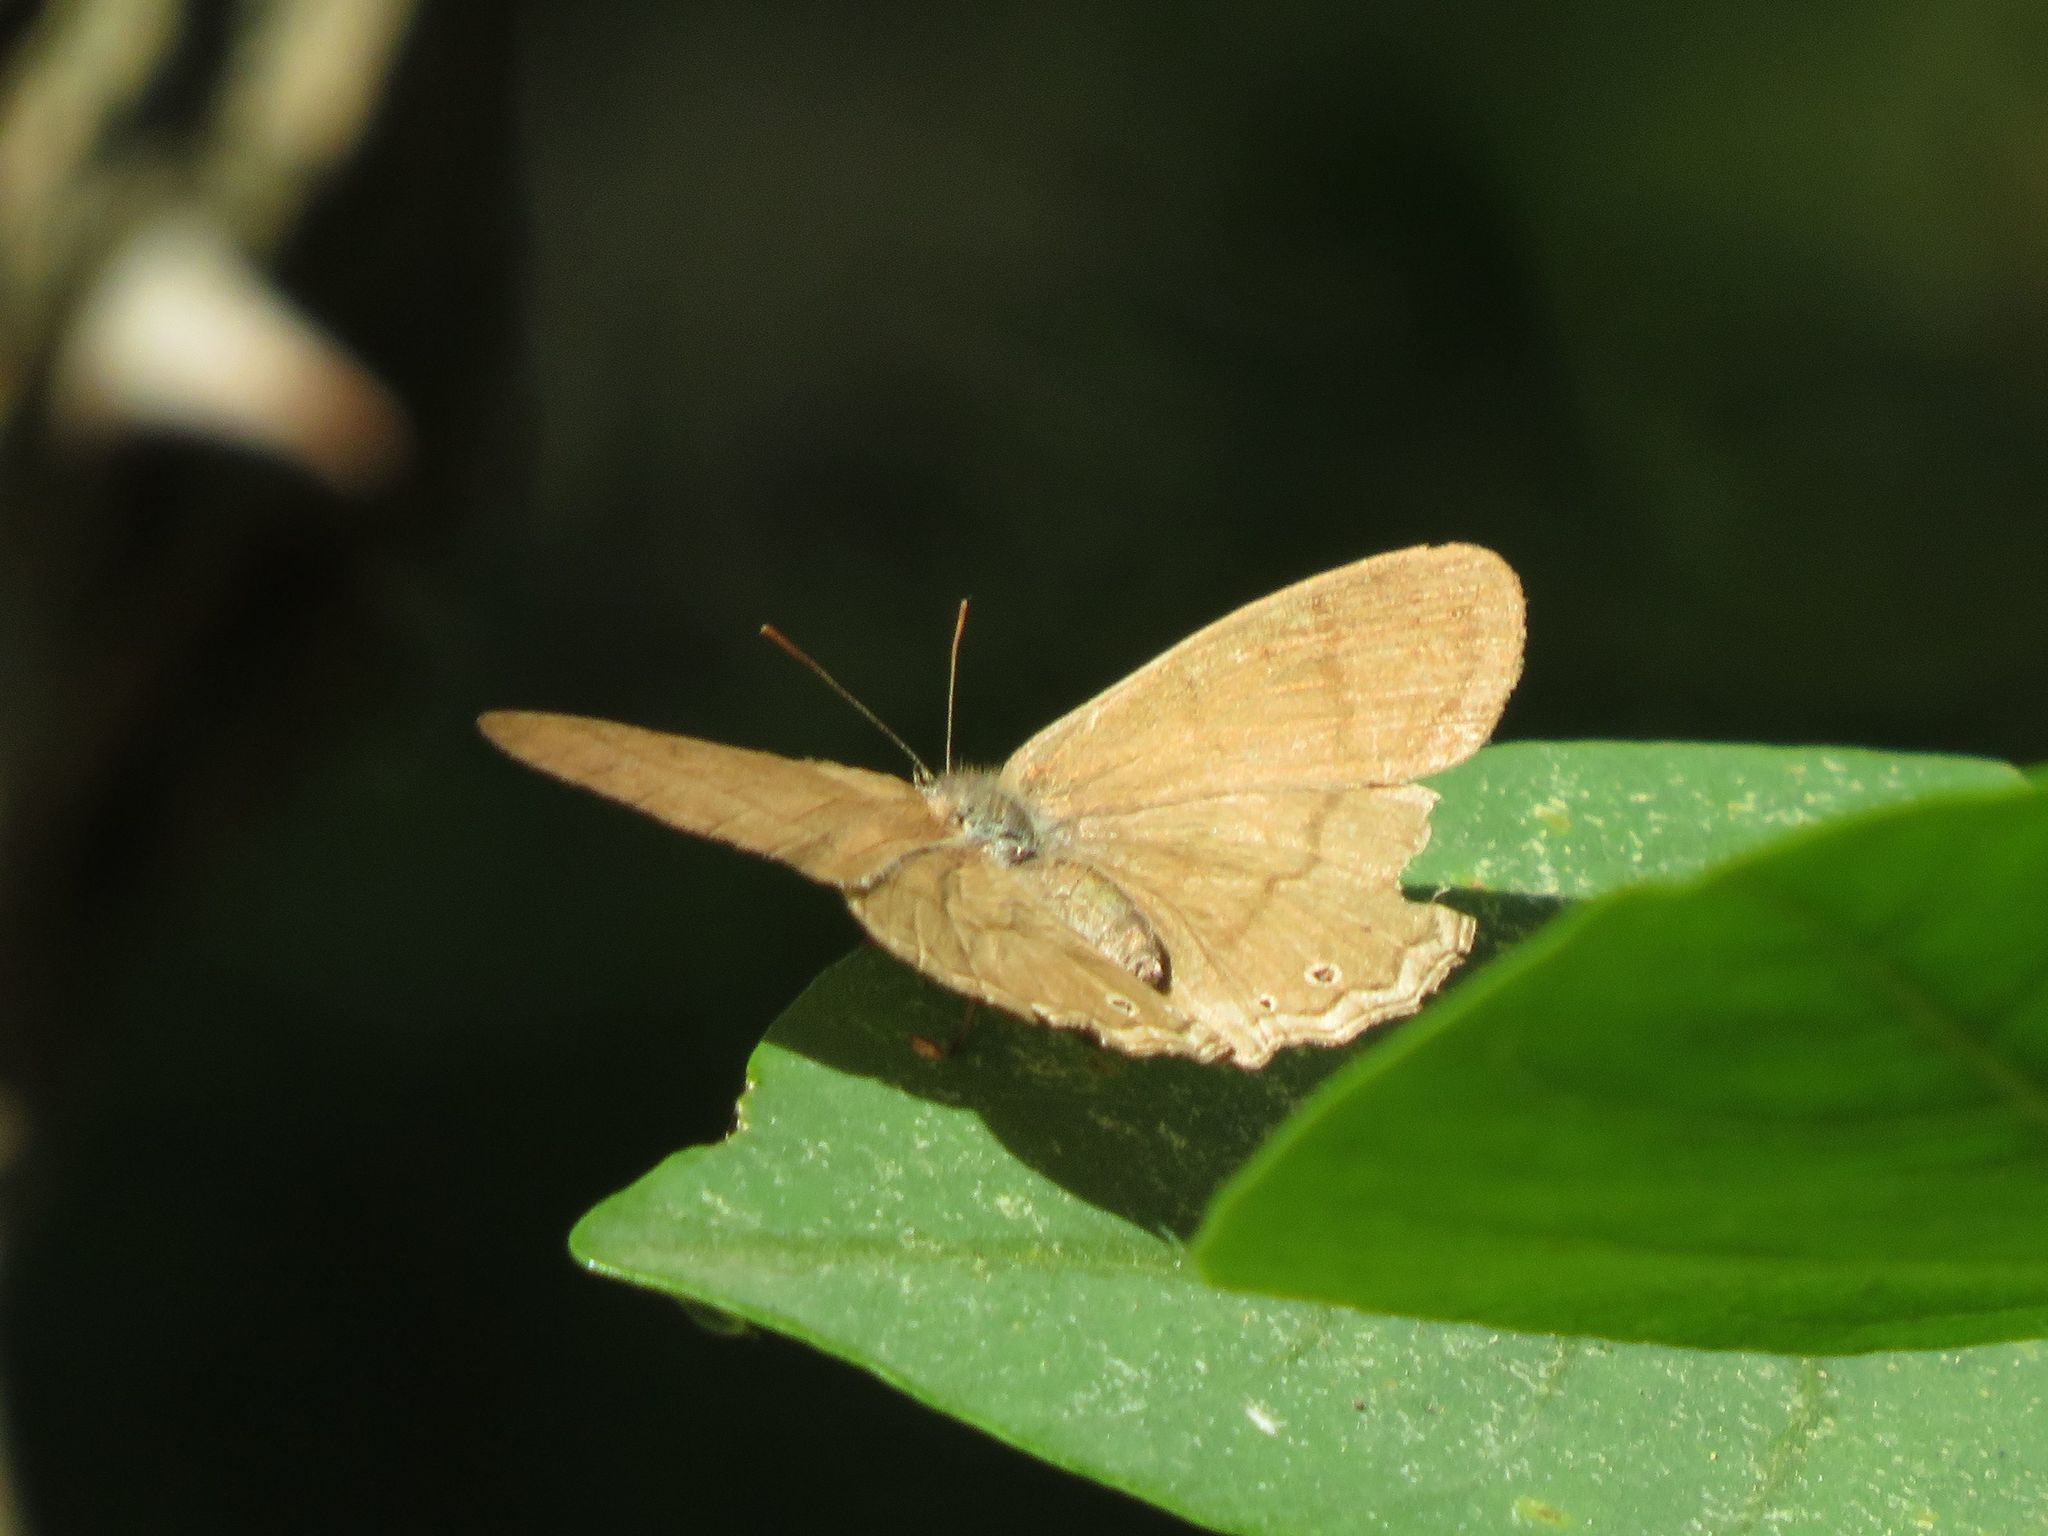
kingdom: Animalia
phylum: Arthropoda
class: Insecta
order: Lepidoptera
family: Nymphalidae
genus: Paryphthimoides
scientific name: Paryphthimoides poltys
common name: Poltys satyr
